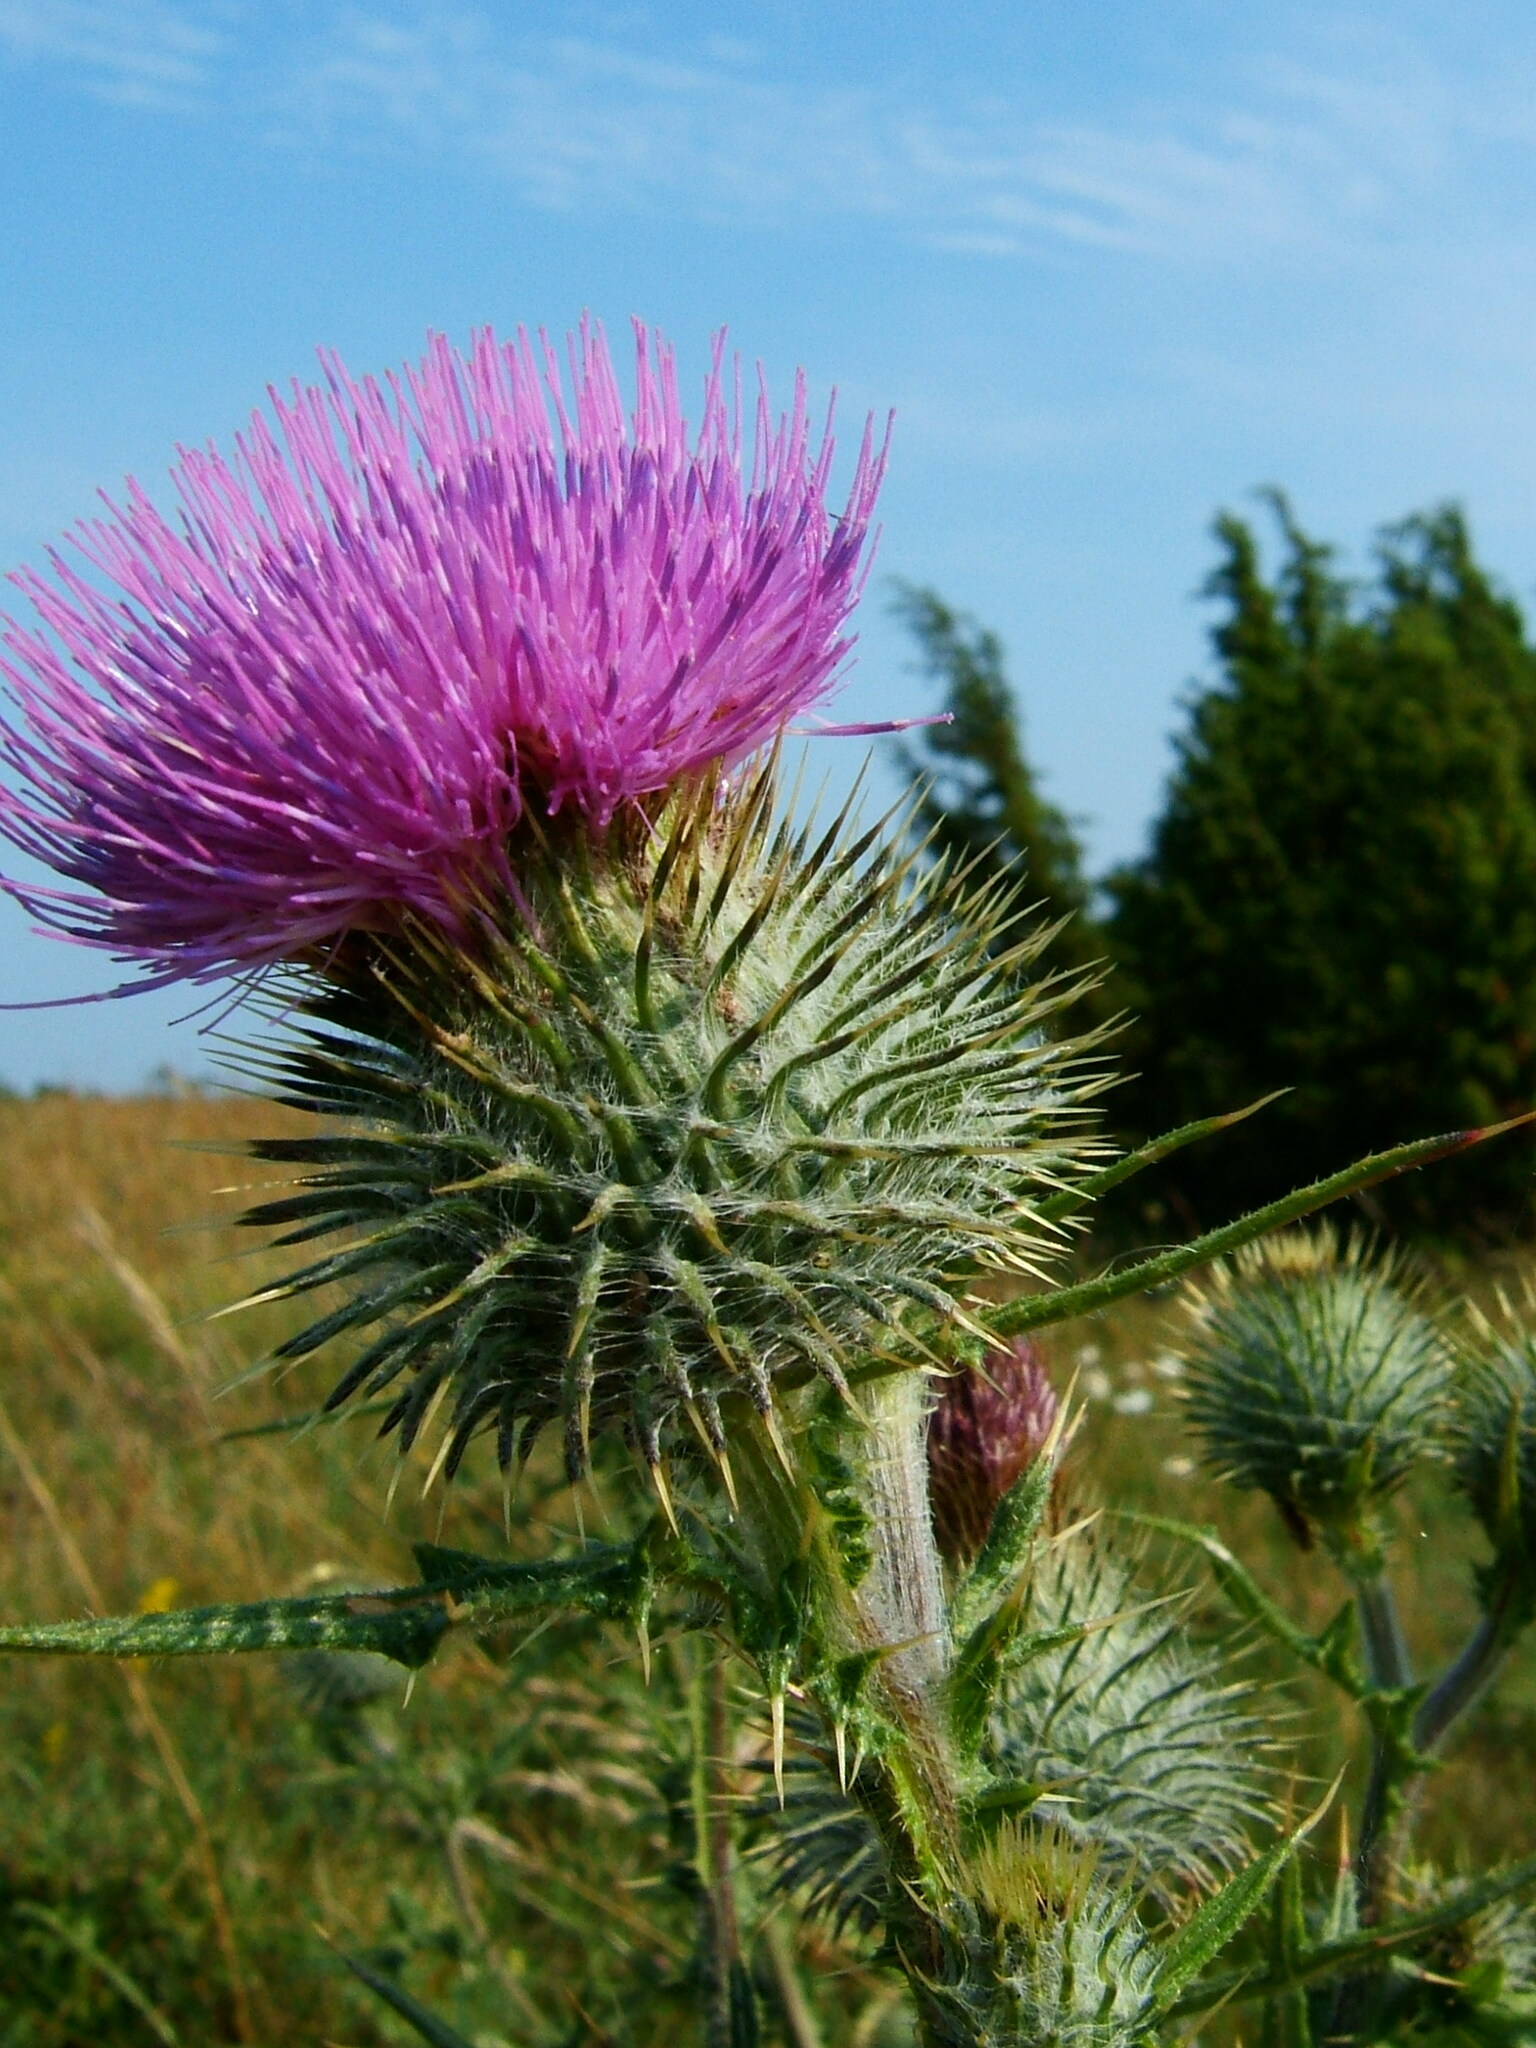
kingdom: Plantae
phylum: Tracheophyta
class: Magnoliopsida
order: Asterales
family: Asteraceae
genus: Cirsium
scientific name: Cirsium vulgare
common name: Bull thistle
